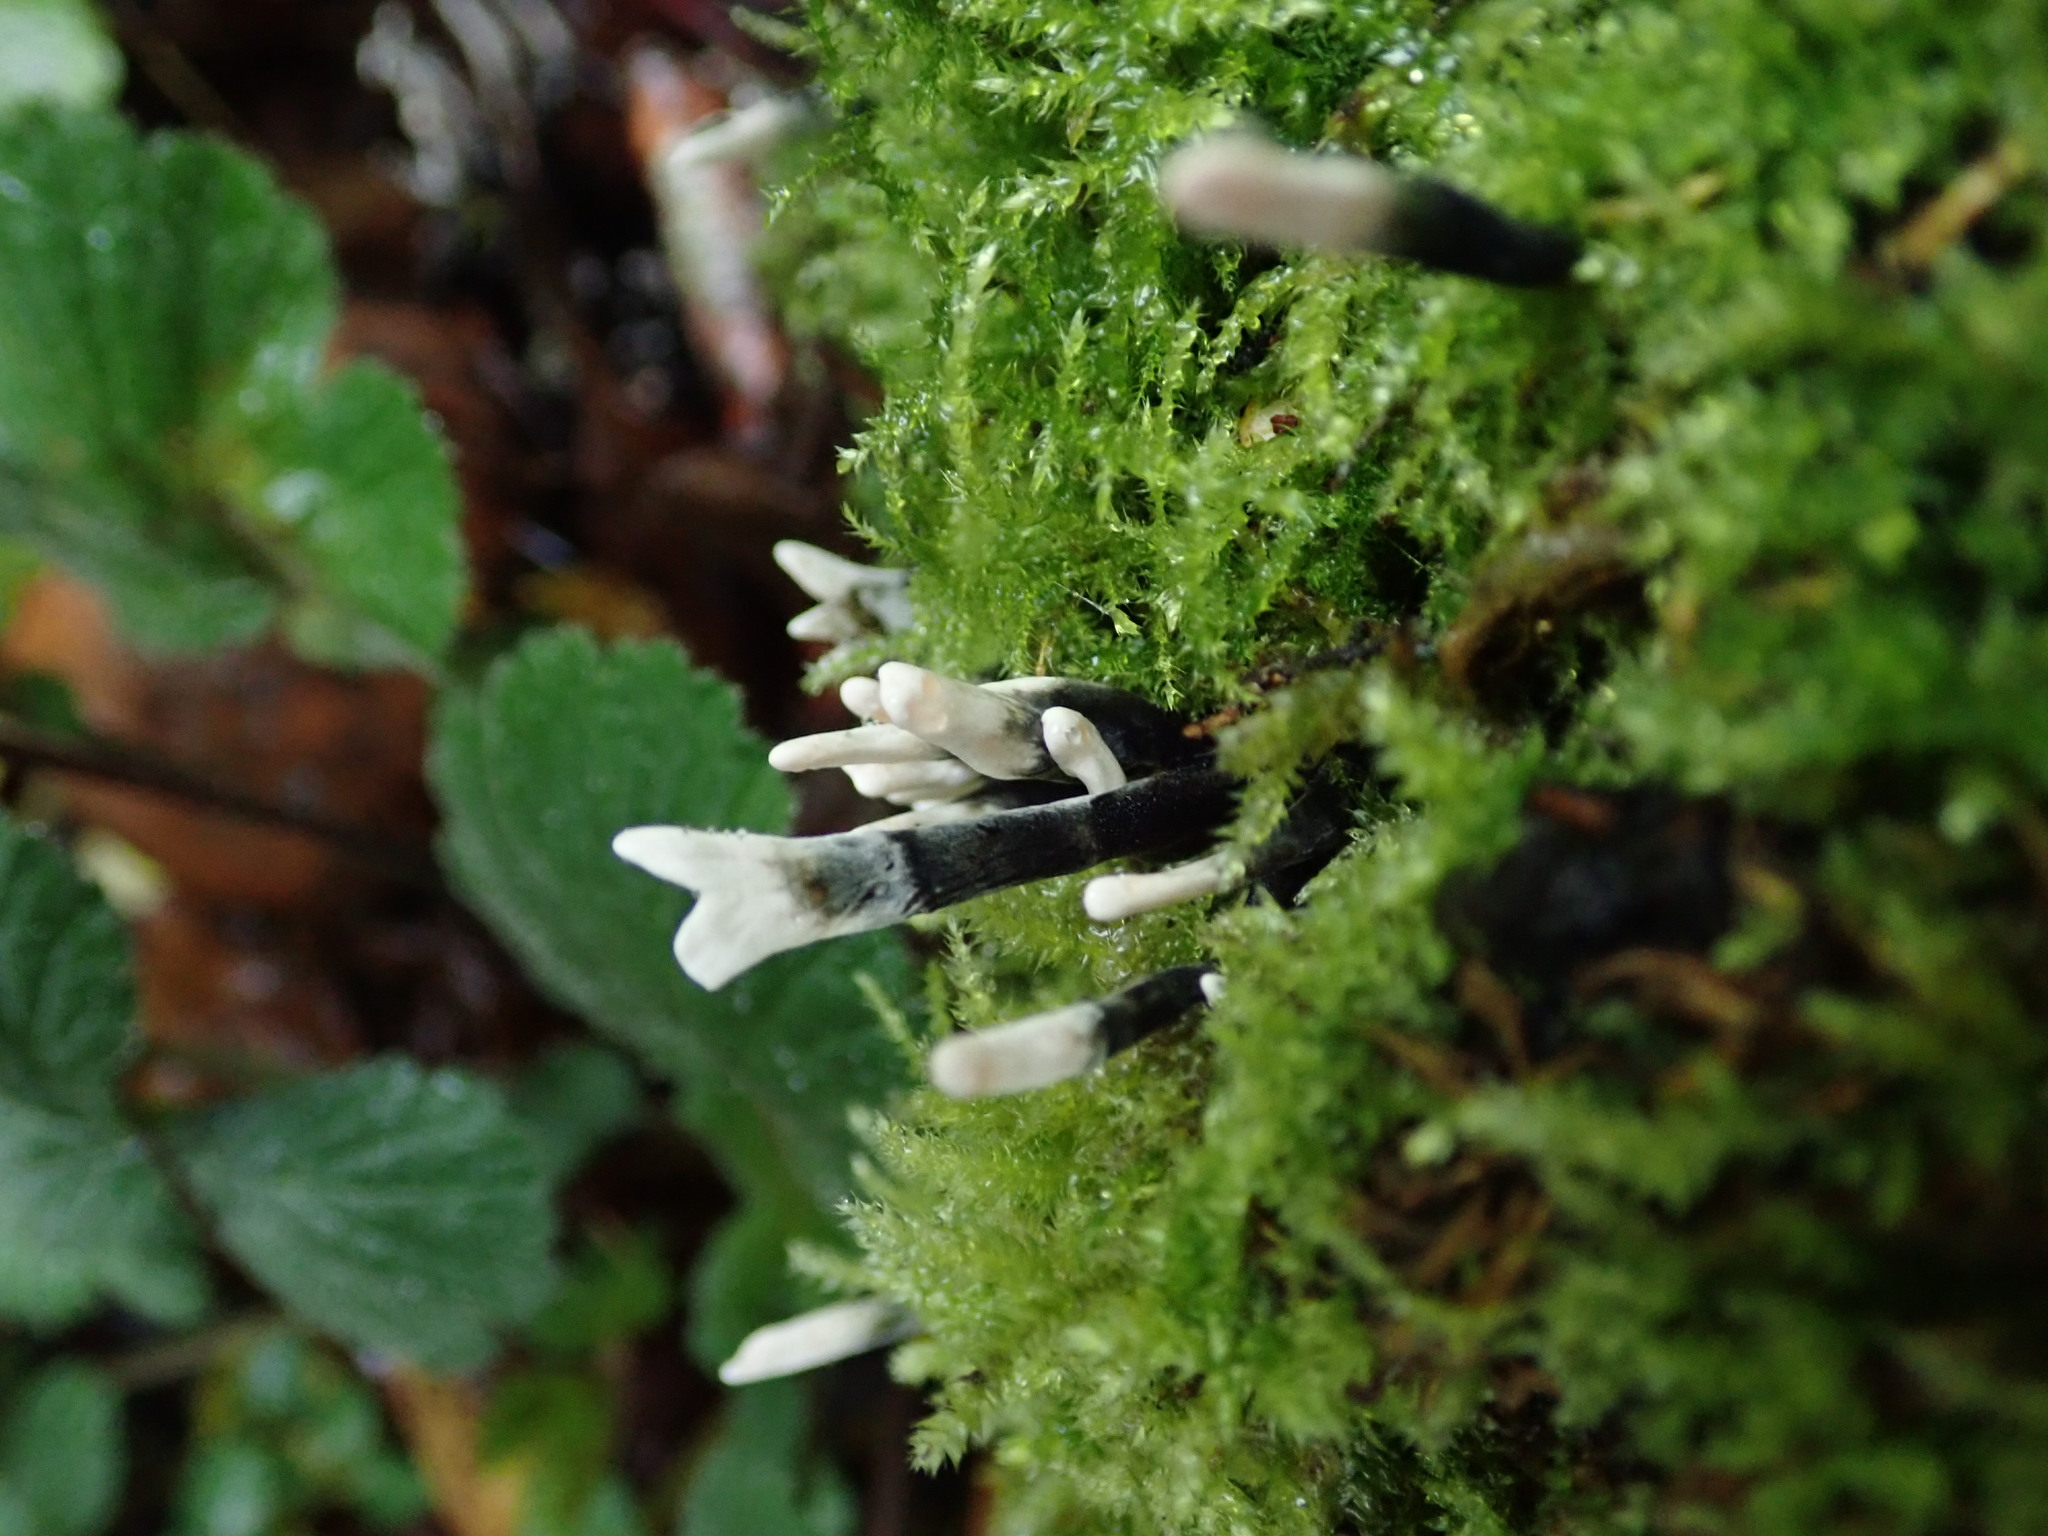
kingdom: Fungi
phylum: Ascomycota
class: Sordariomycetes
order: Xylariales
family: Xylariaceae
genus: Xylaria
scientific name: Xylaria hypoxylon
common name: Candle-snuff fungus
